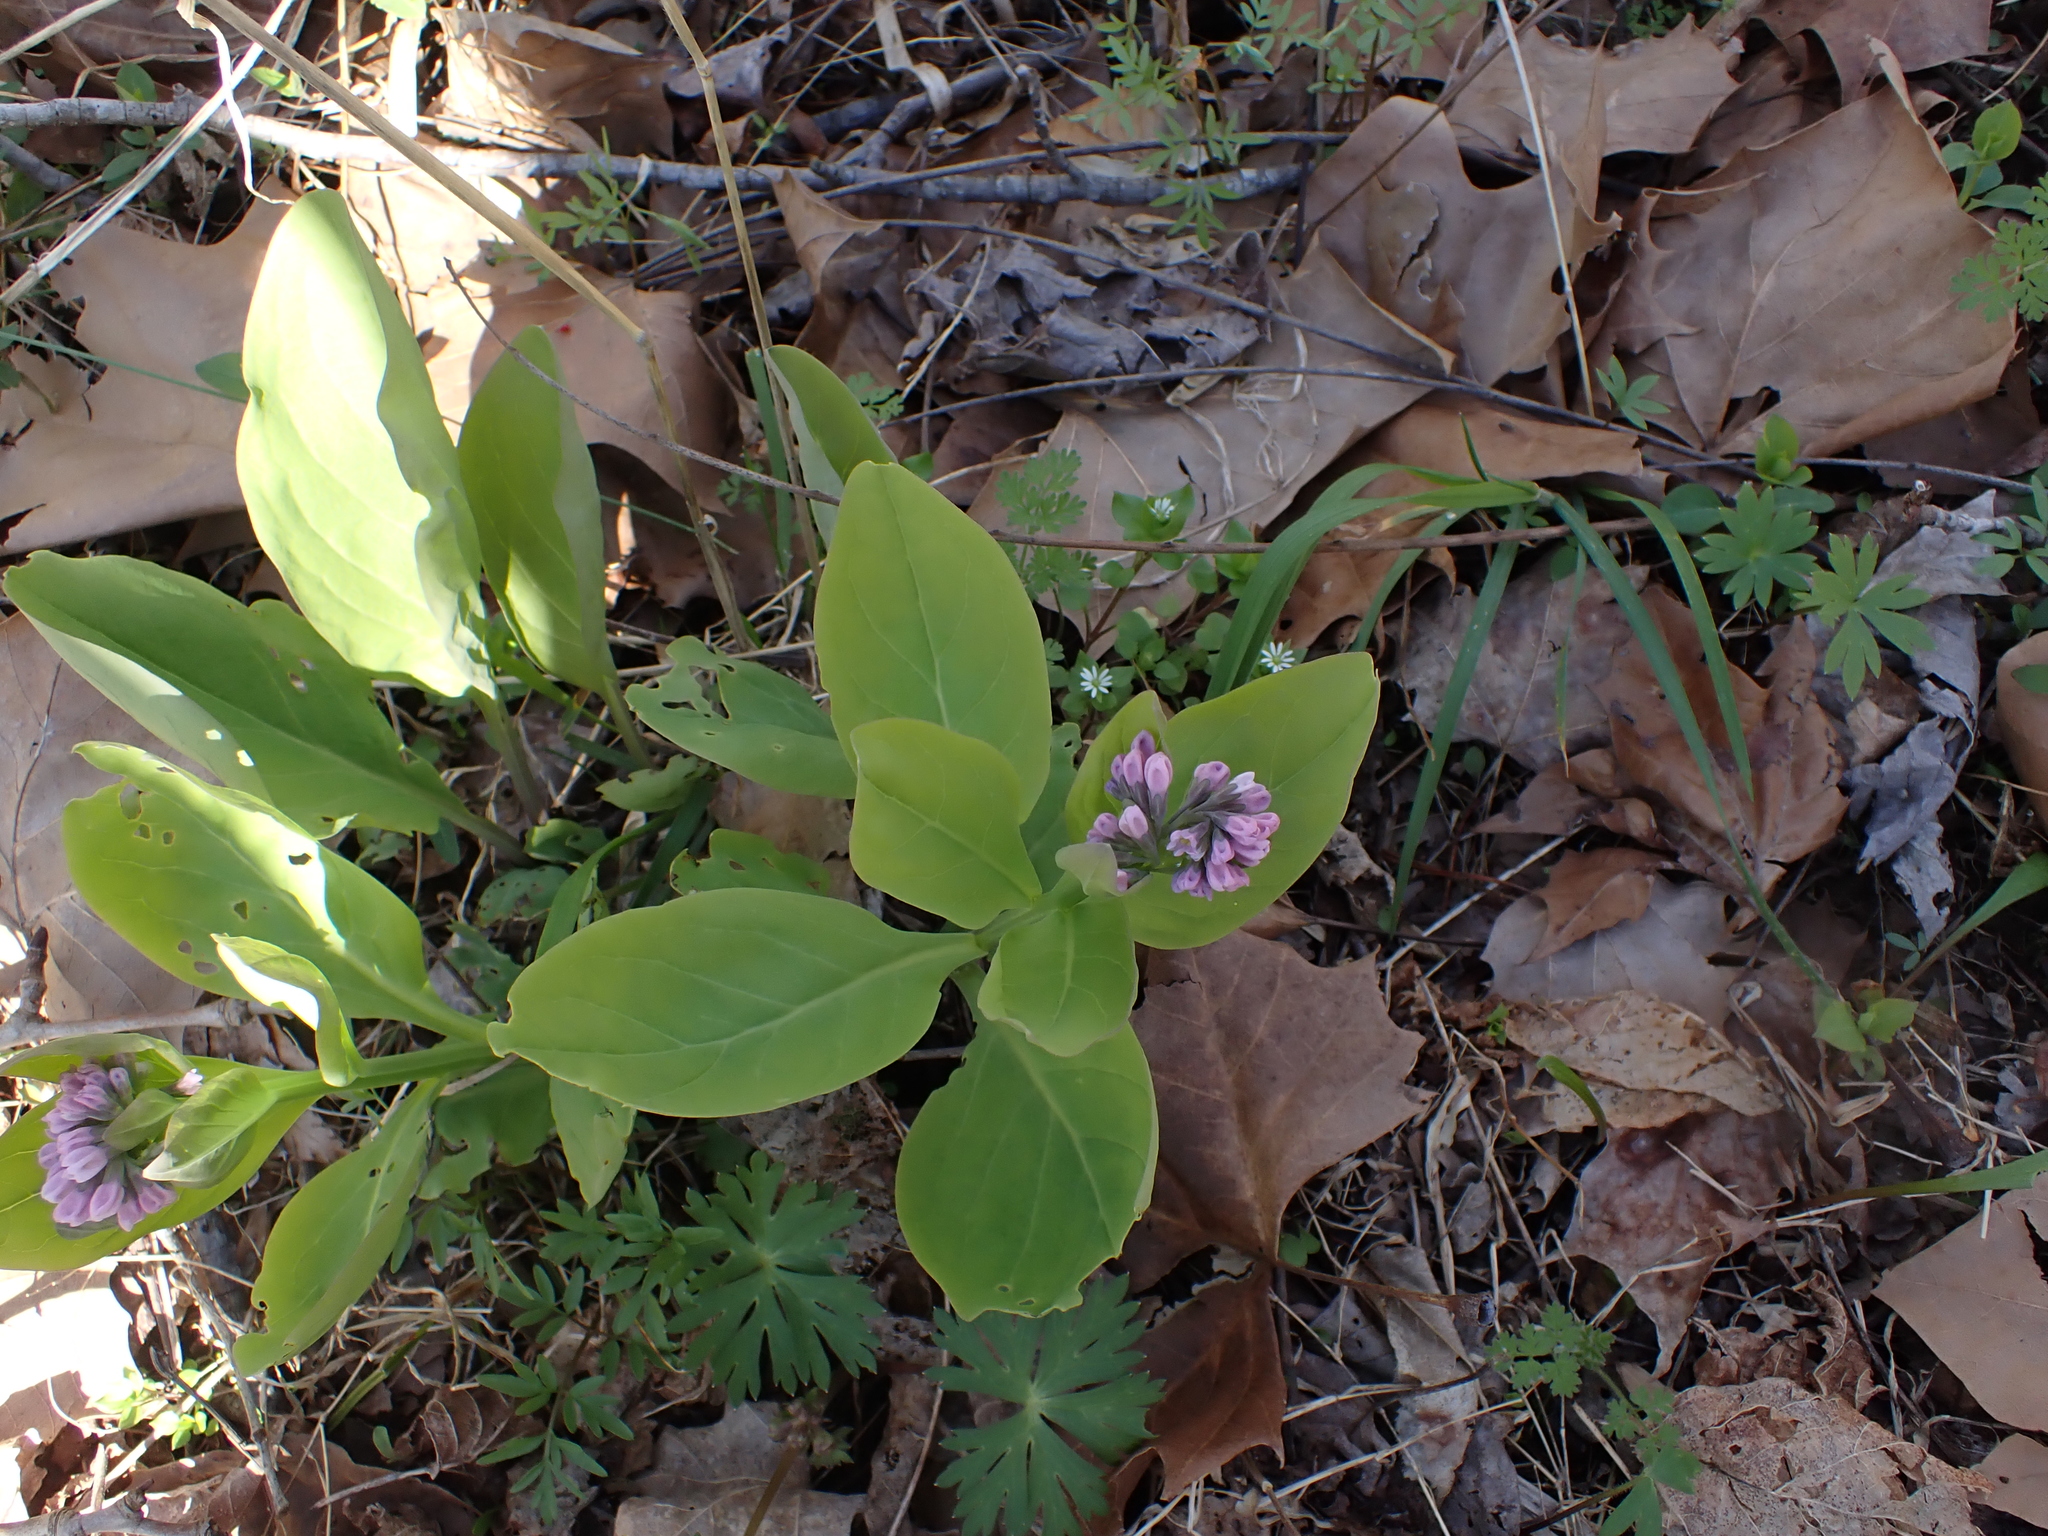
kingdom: Plantae
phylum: Tracheophyta
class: Magnoliopsida
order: Boraginales
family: Boraginaceae
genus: Mertensia
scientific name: Mertensia virginica
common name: Virginia bluebells
